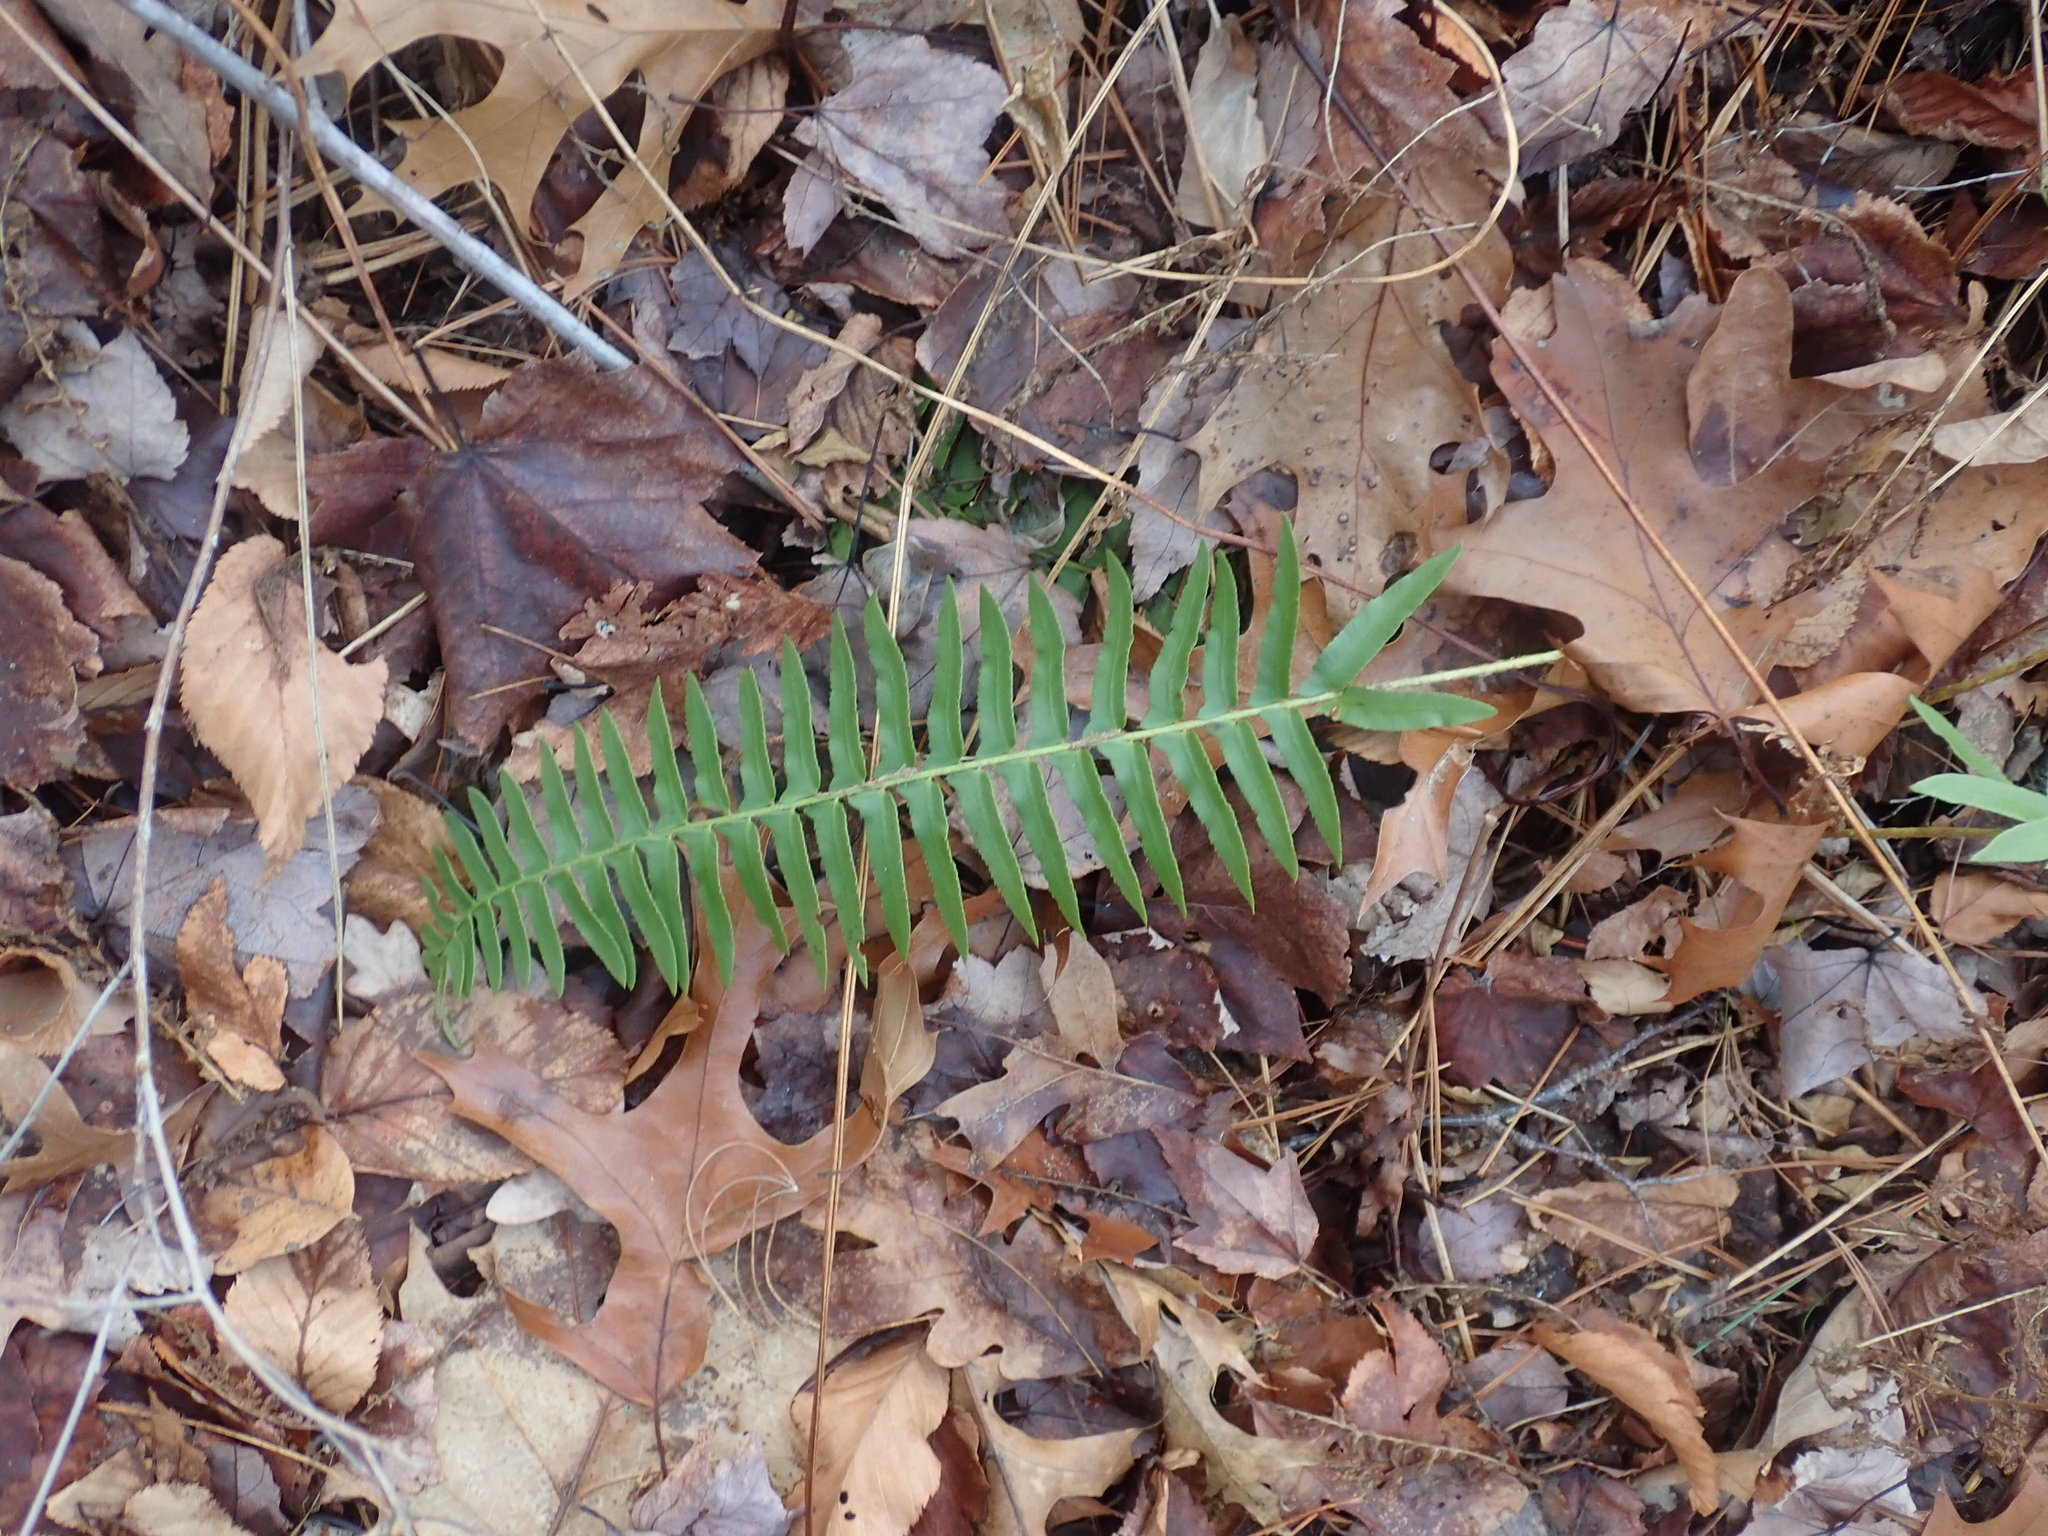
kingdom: Plantae
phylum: Tracheophyta
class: Polypodiopsida
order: Polypodiales
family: Dryopteridaceae
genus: Polystichum
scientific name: Polystichum acrostichoides
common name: Christmas fern
